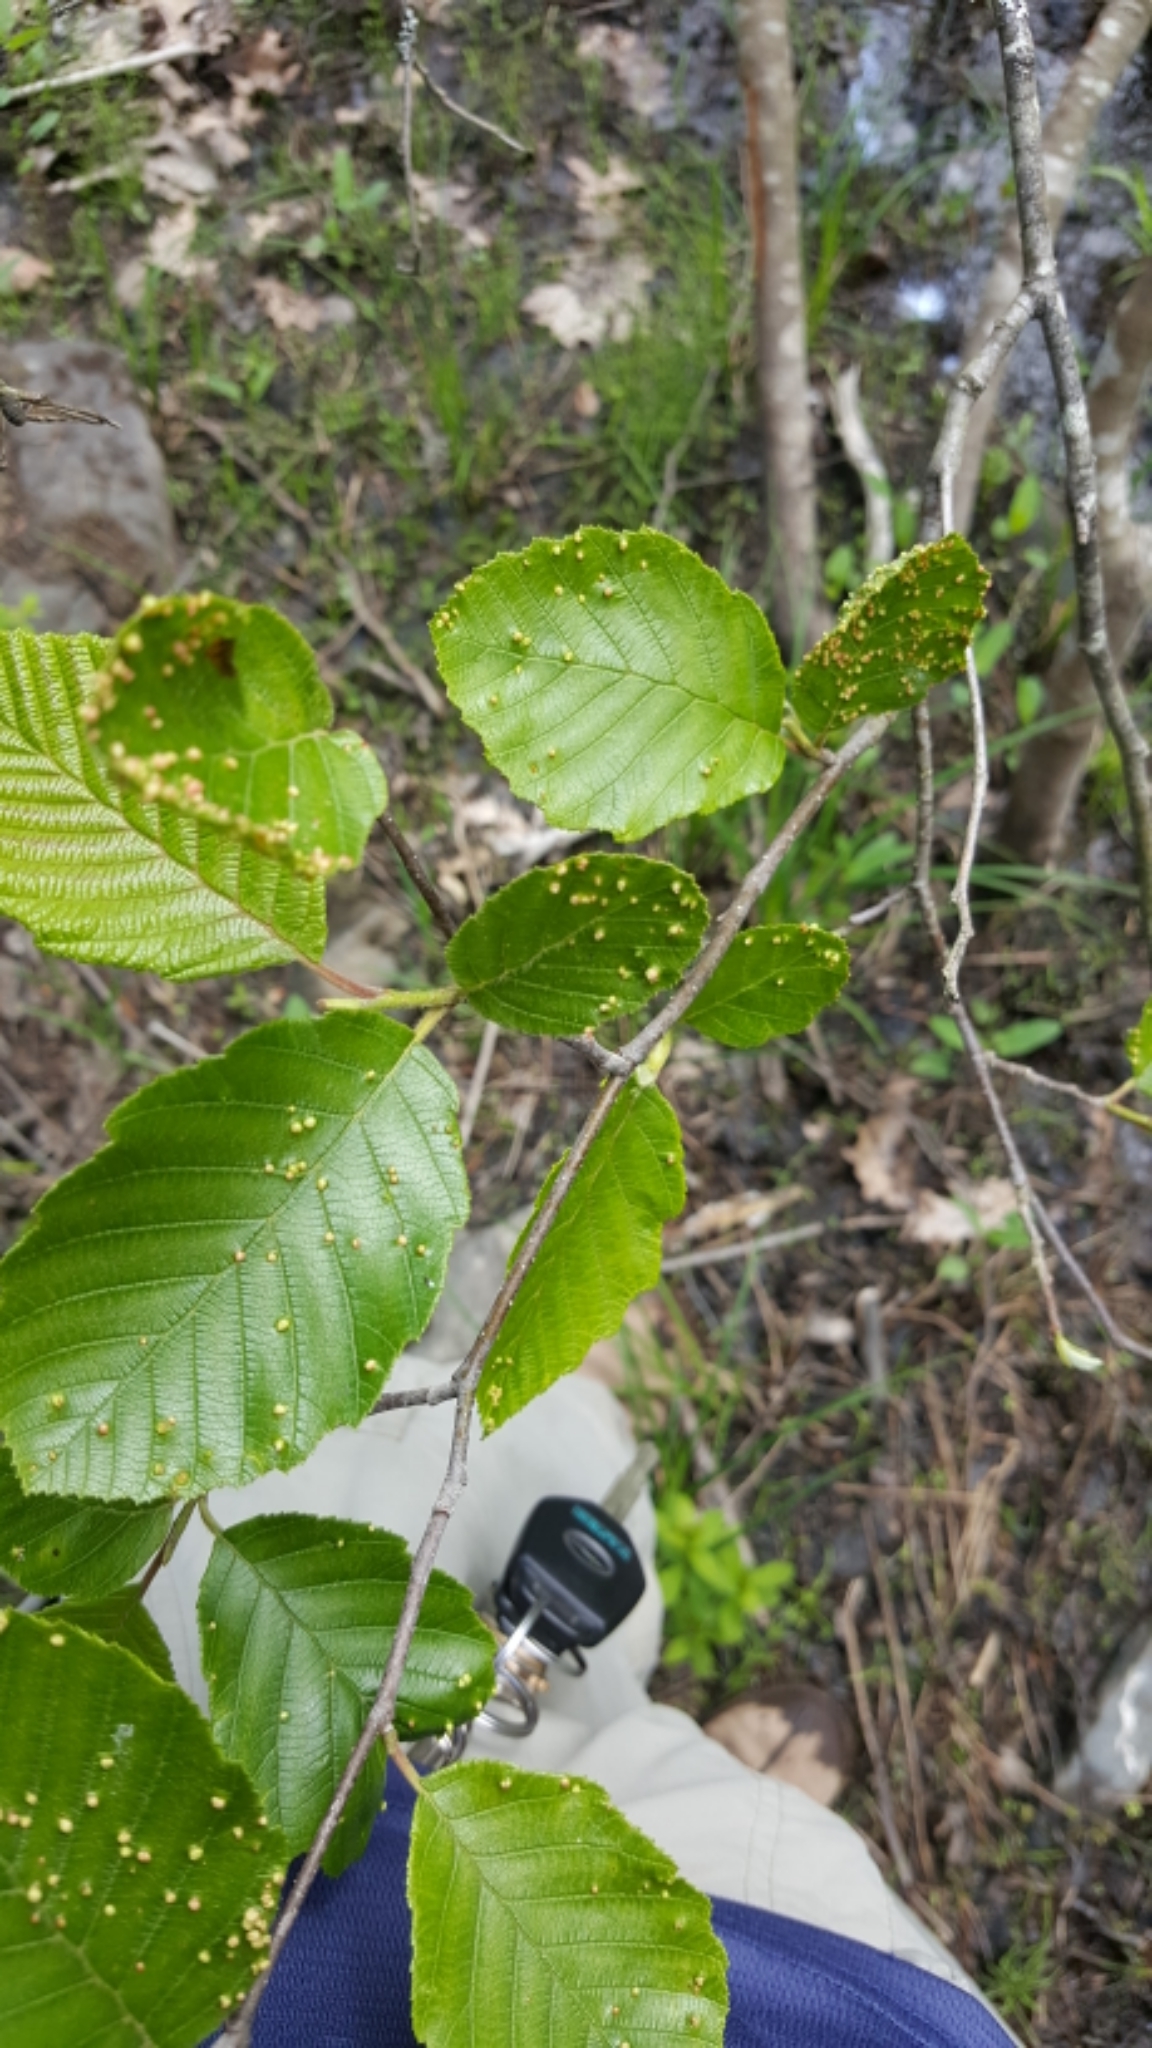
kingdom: Plantae
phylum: Tracheophyta
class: Magnoliopsida
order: Fagales
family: Betulaceae
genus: Alnus
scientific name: Alnus incana
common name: Grey alder
